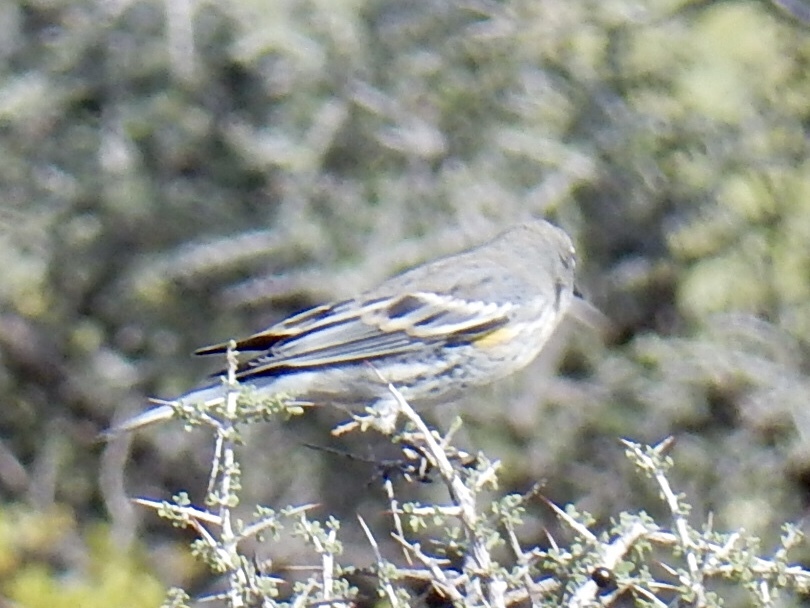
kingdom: Animalia
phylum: Chordata
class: Aves
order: Passeriformes
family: Parulidae
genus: Setophaga
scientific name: Setophaga coronata
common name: Myrtle warbler
